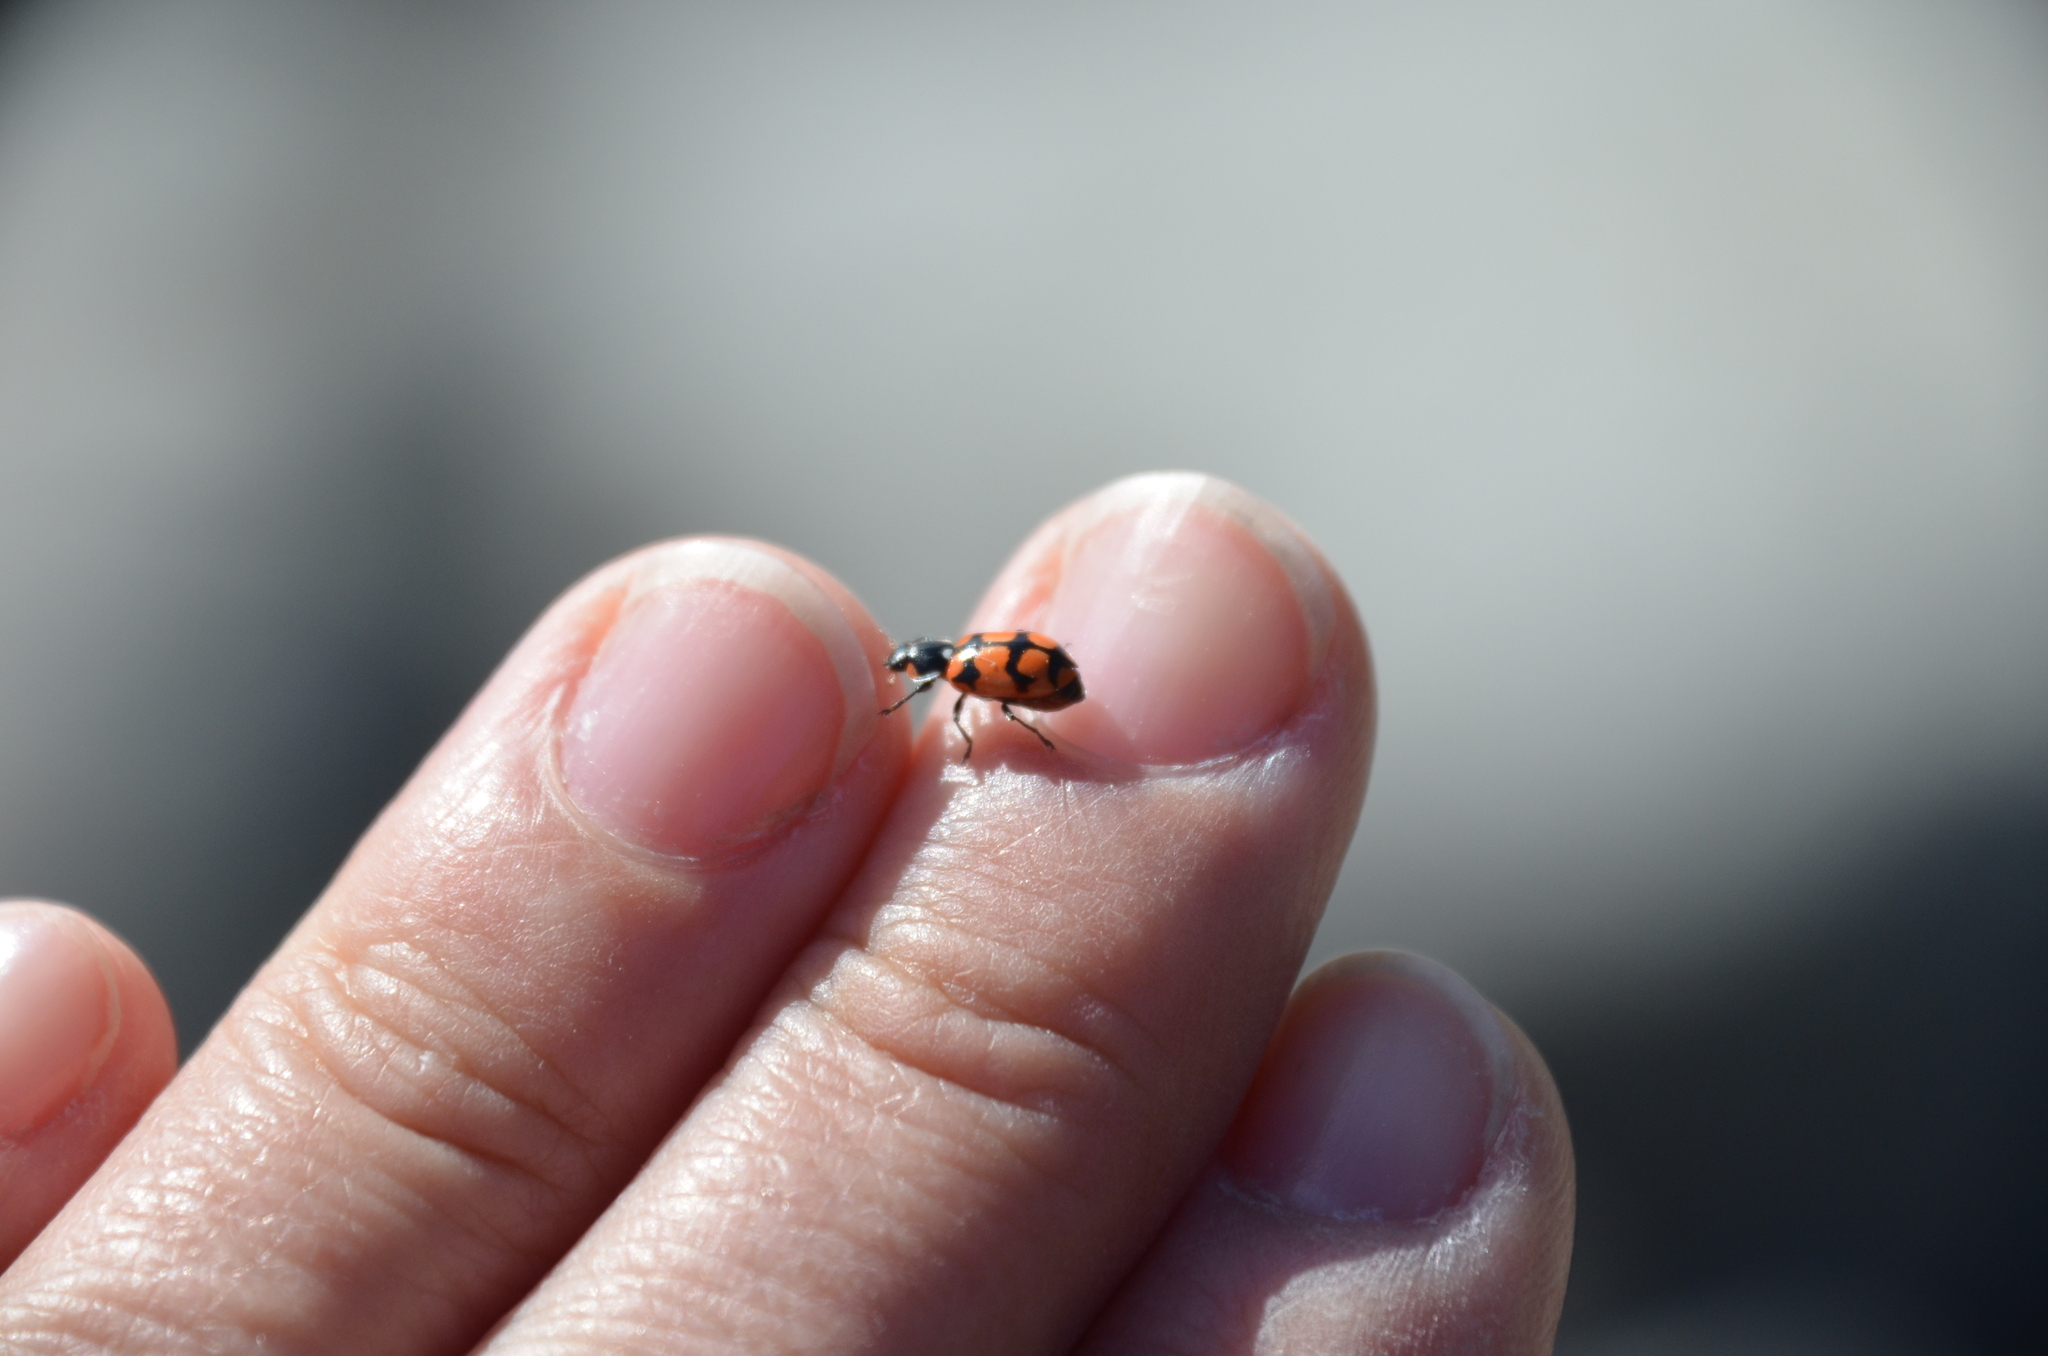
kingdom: Animalia
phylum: Arthropoda
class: Insecta
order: Coleoptera
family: Coccinellidae
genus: Eriopis
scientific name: Eriopis chilensis
